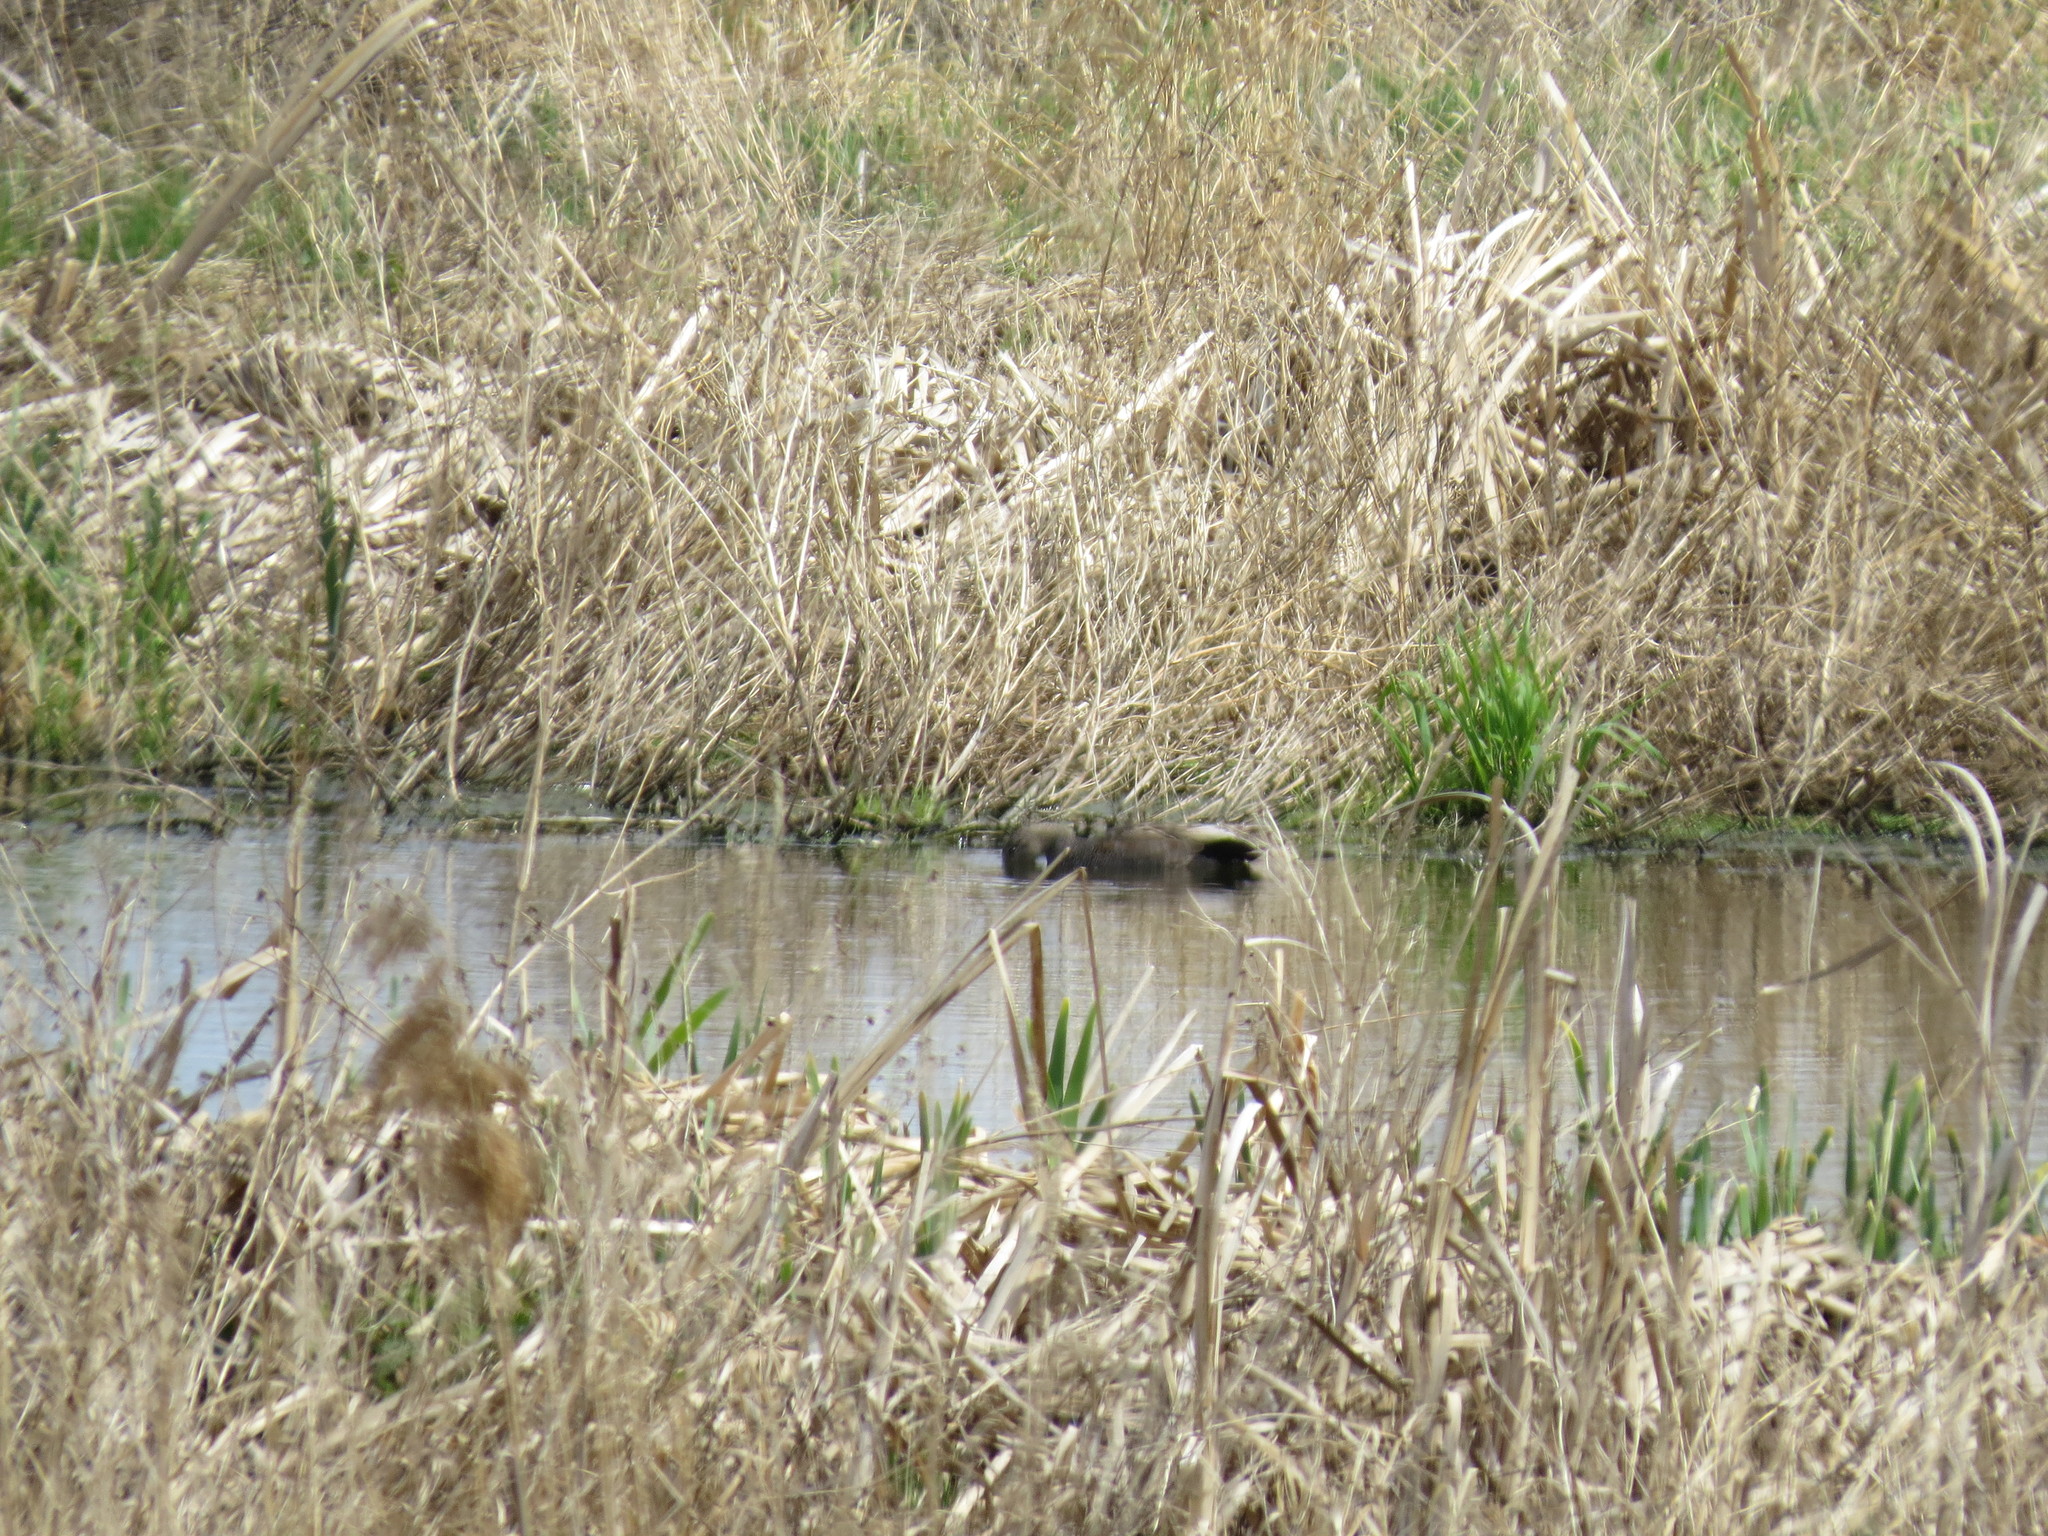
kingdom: Animalia
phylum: Chordata
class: Aves
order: Anseriformes
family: Anatidae
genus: Mareca
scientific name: Mareca strepera
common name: Gadwall
